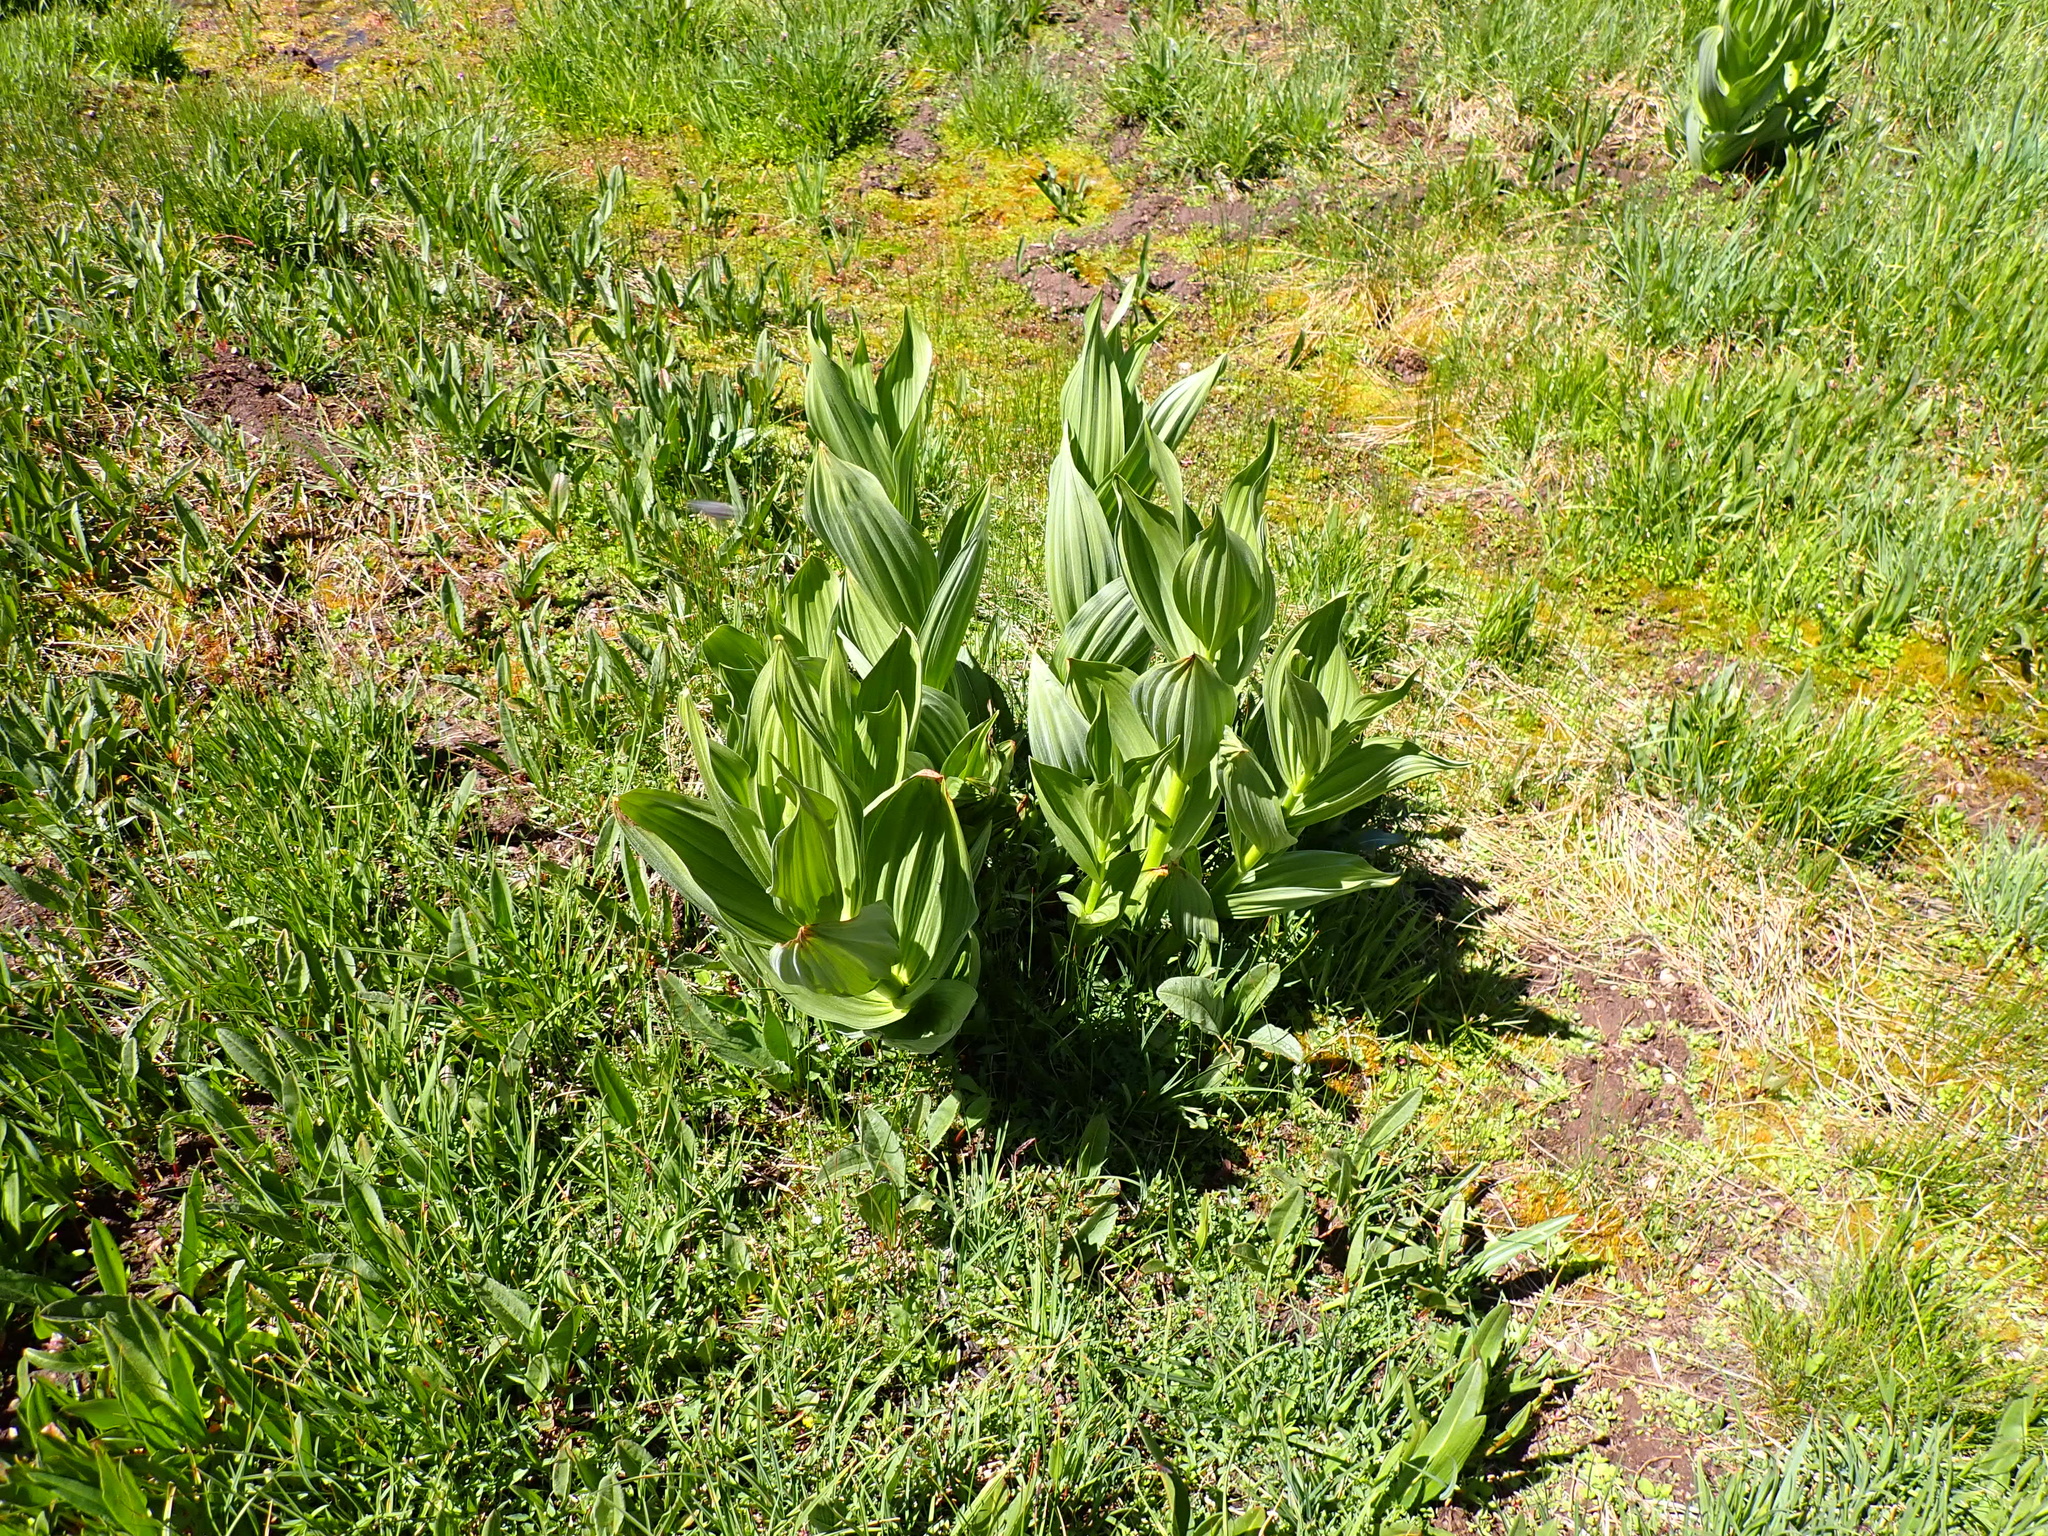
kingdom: Plantae
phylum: Tracheophyta
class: Liliopsida
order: Liliales
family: Melanthiaceae
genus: Veratrum
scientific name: Veratrum californicum
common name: California veratrum
